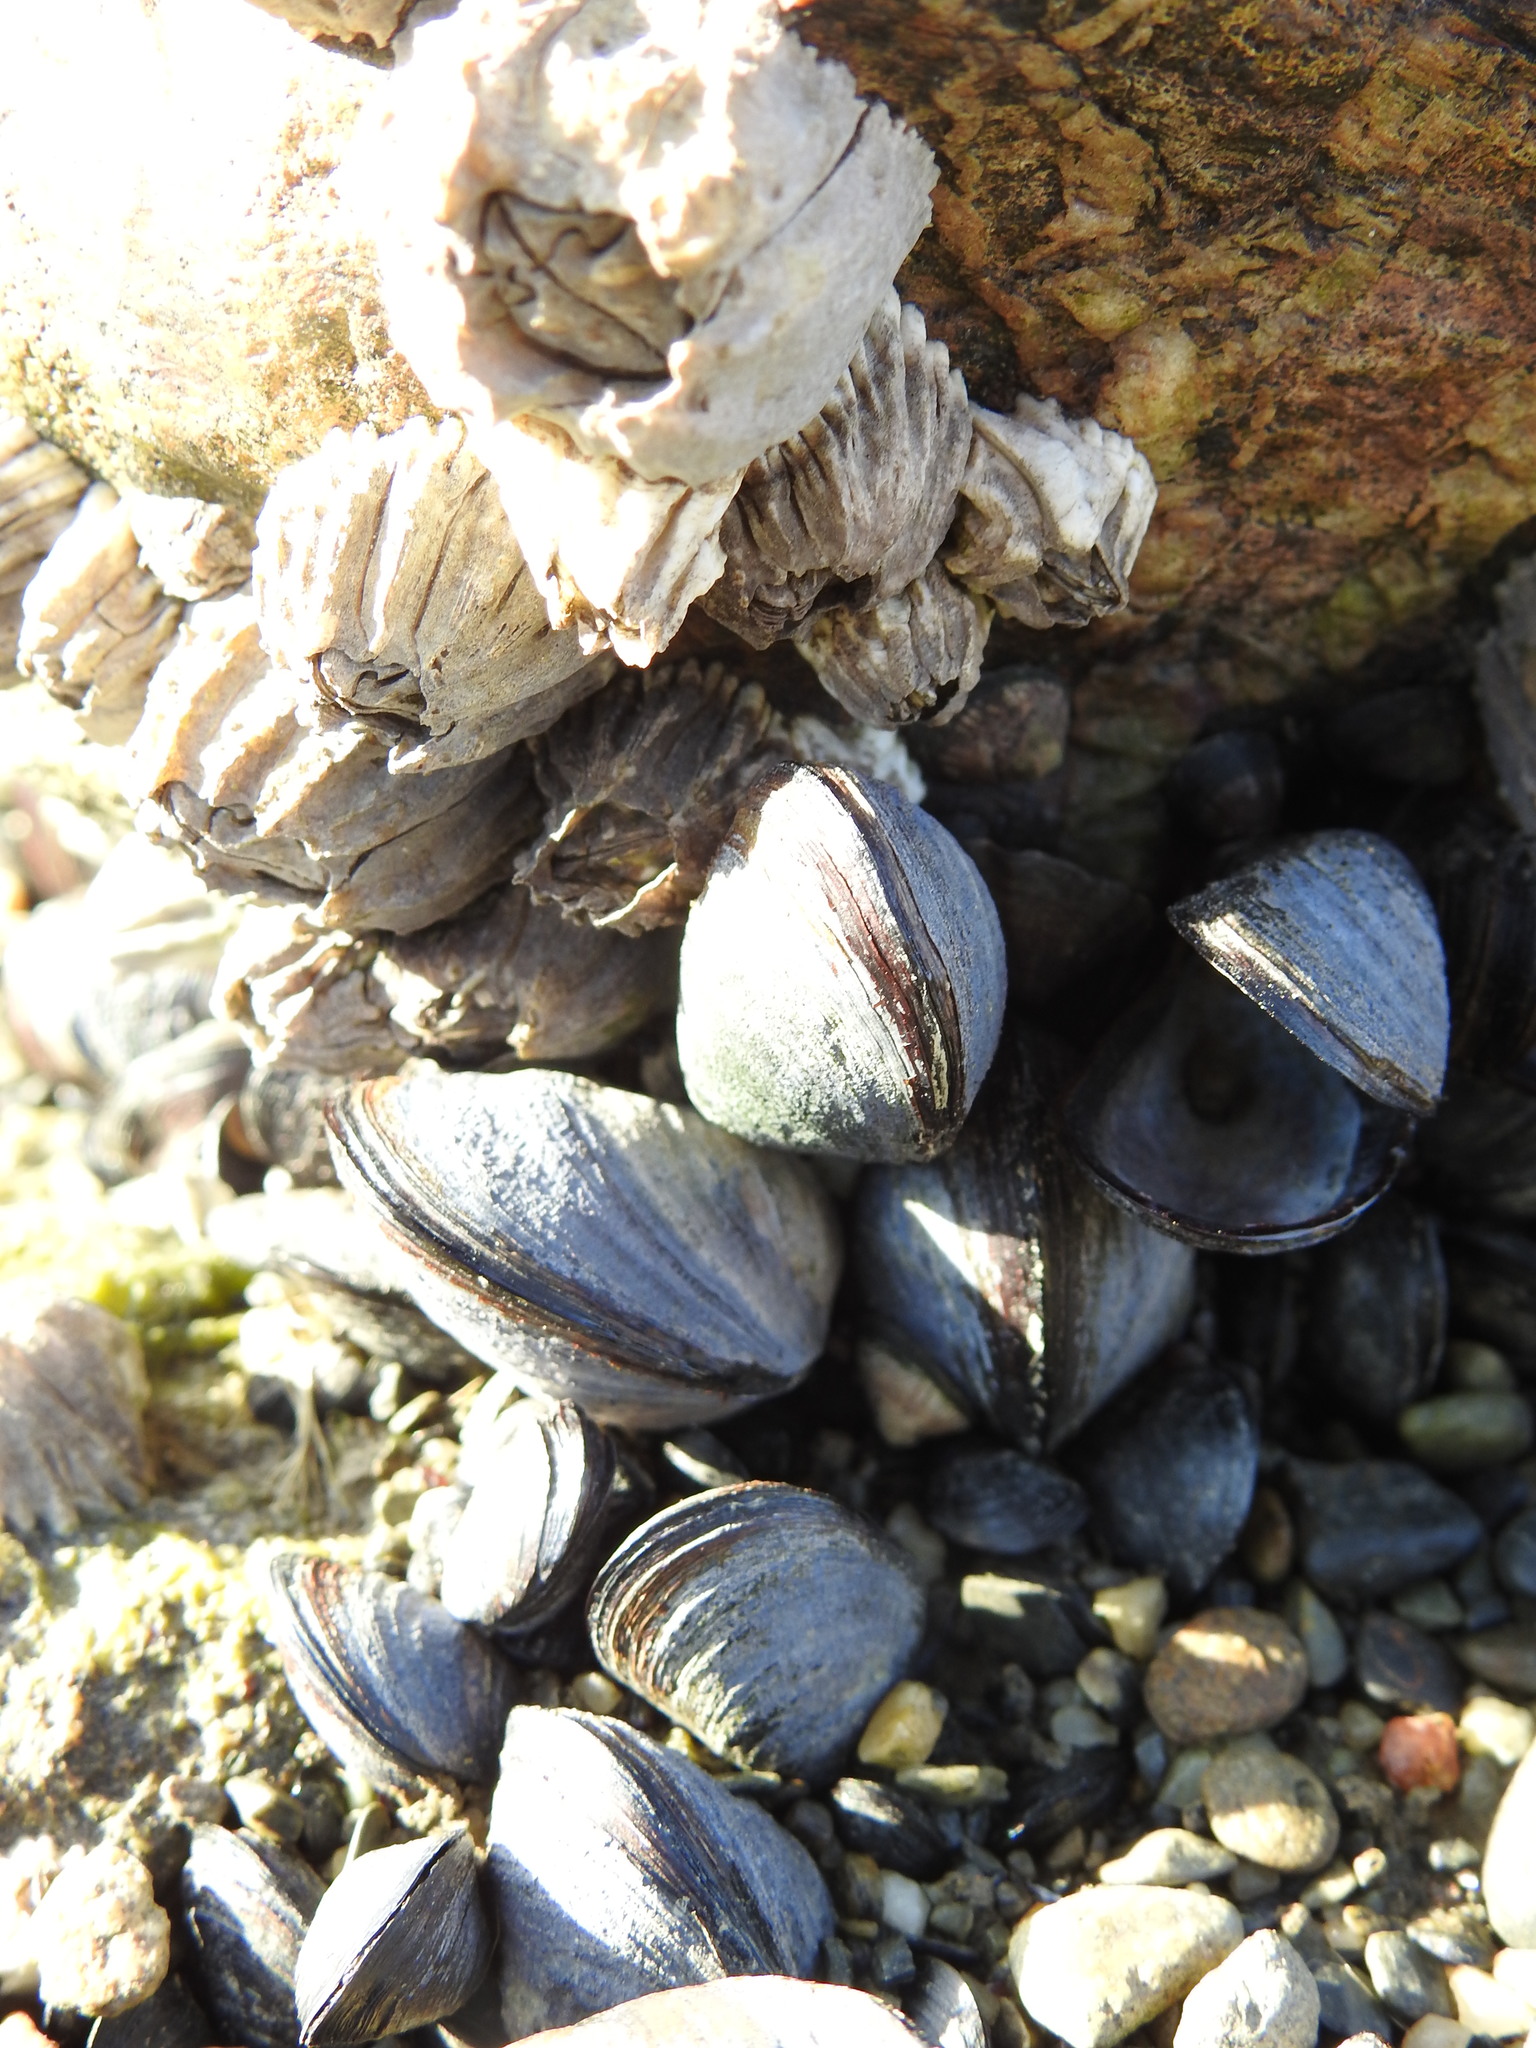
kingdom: Animalia
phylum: Mollusca
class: Bivalvia
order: Mytilida
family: Mytilidae
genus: Mytilus
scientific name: Mytilus chilensis
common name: Chilean mussel
